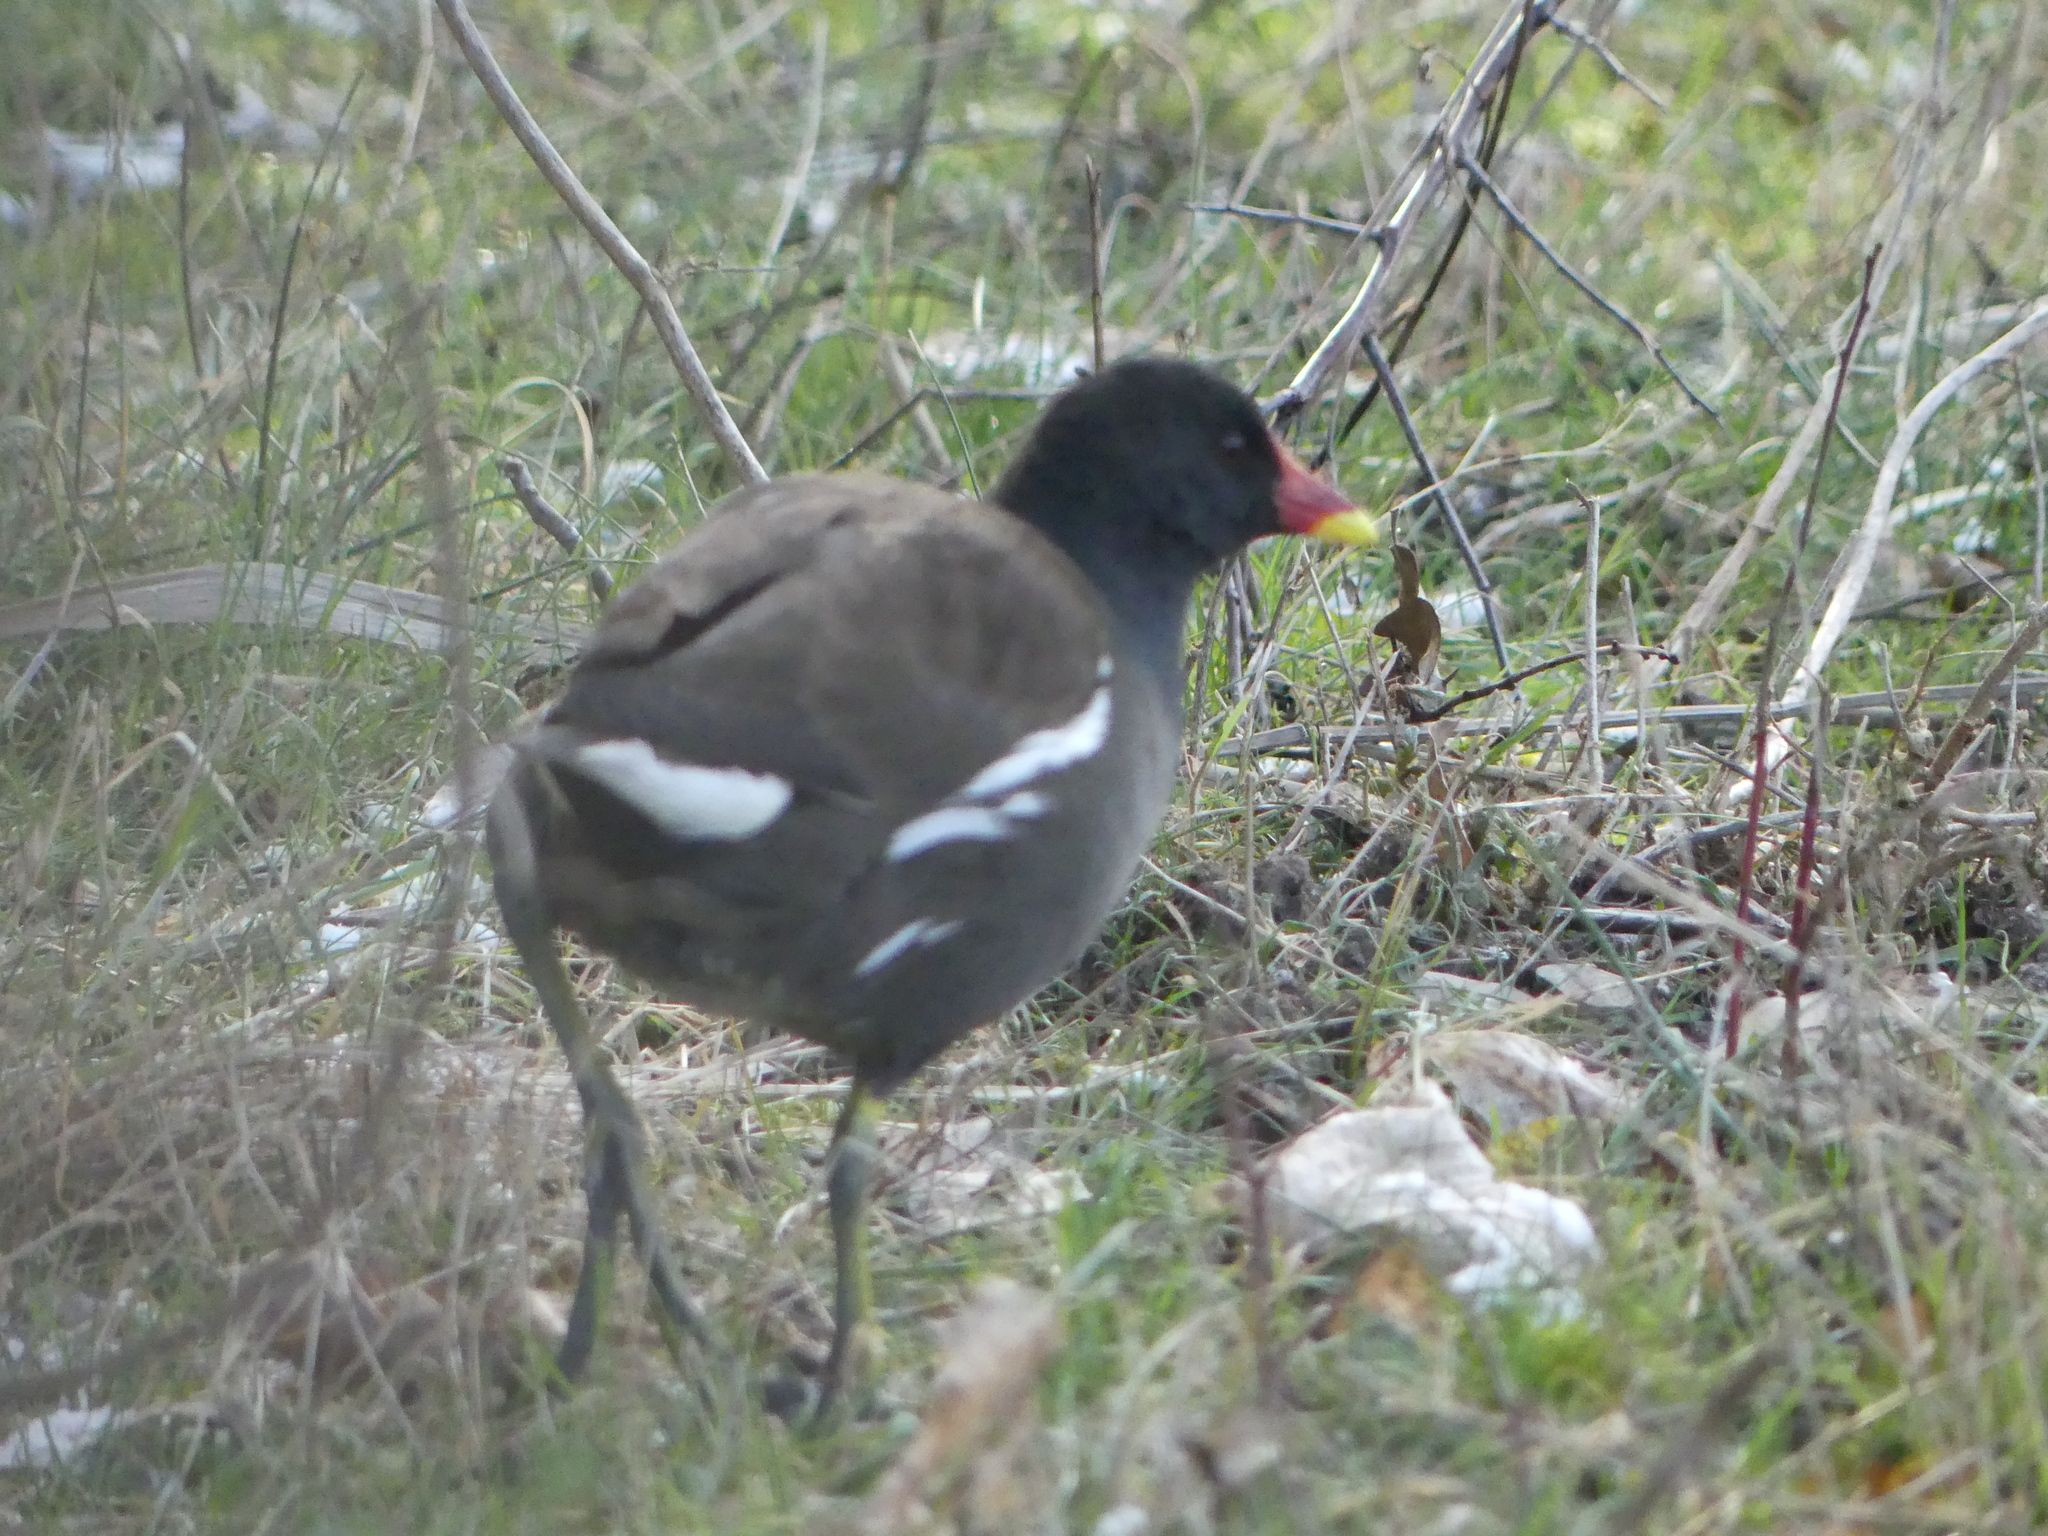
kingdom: Animalia
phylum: Chordata
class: Aves
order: Gruiformes
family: Rallidae
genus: Gallinula
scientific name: Gallinula chloropus
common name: Common moorhen
